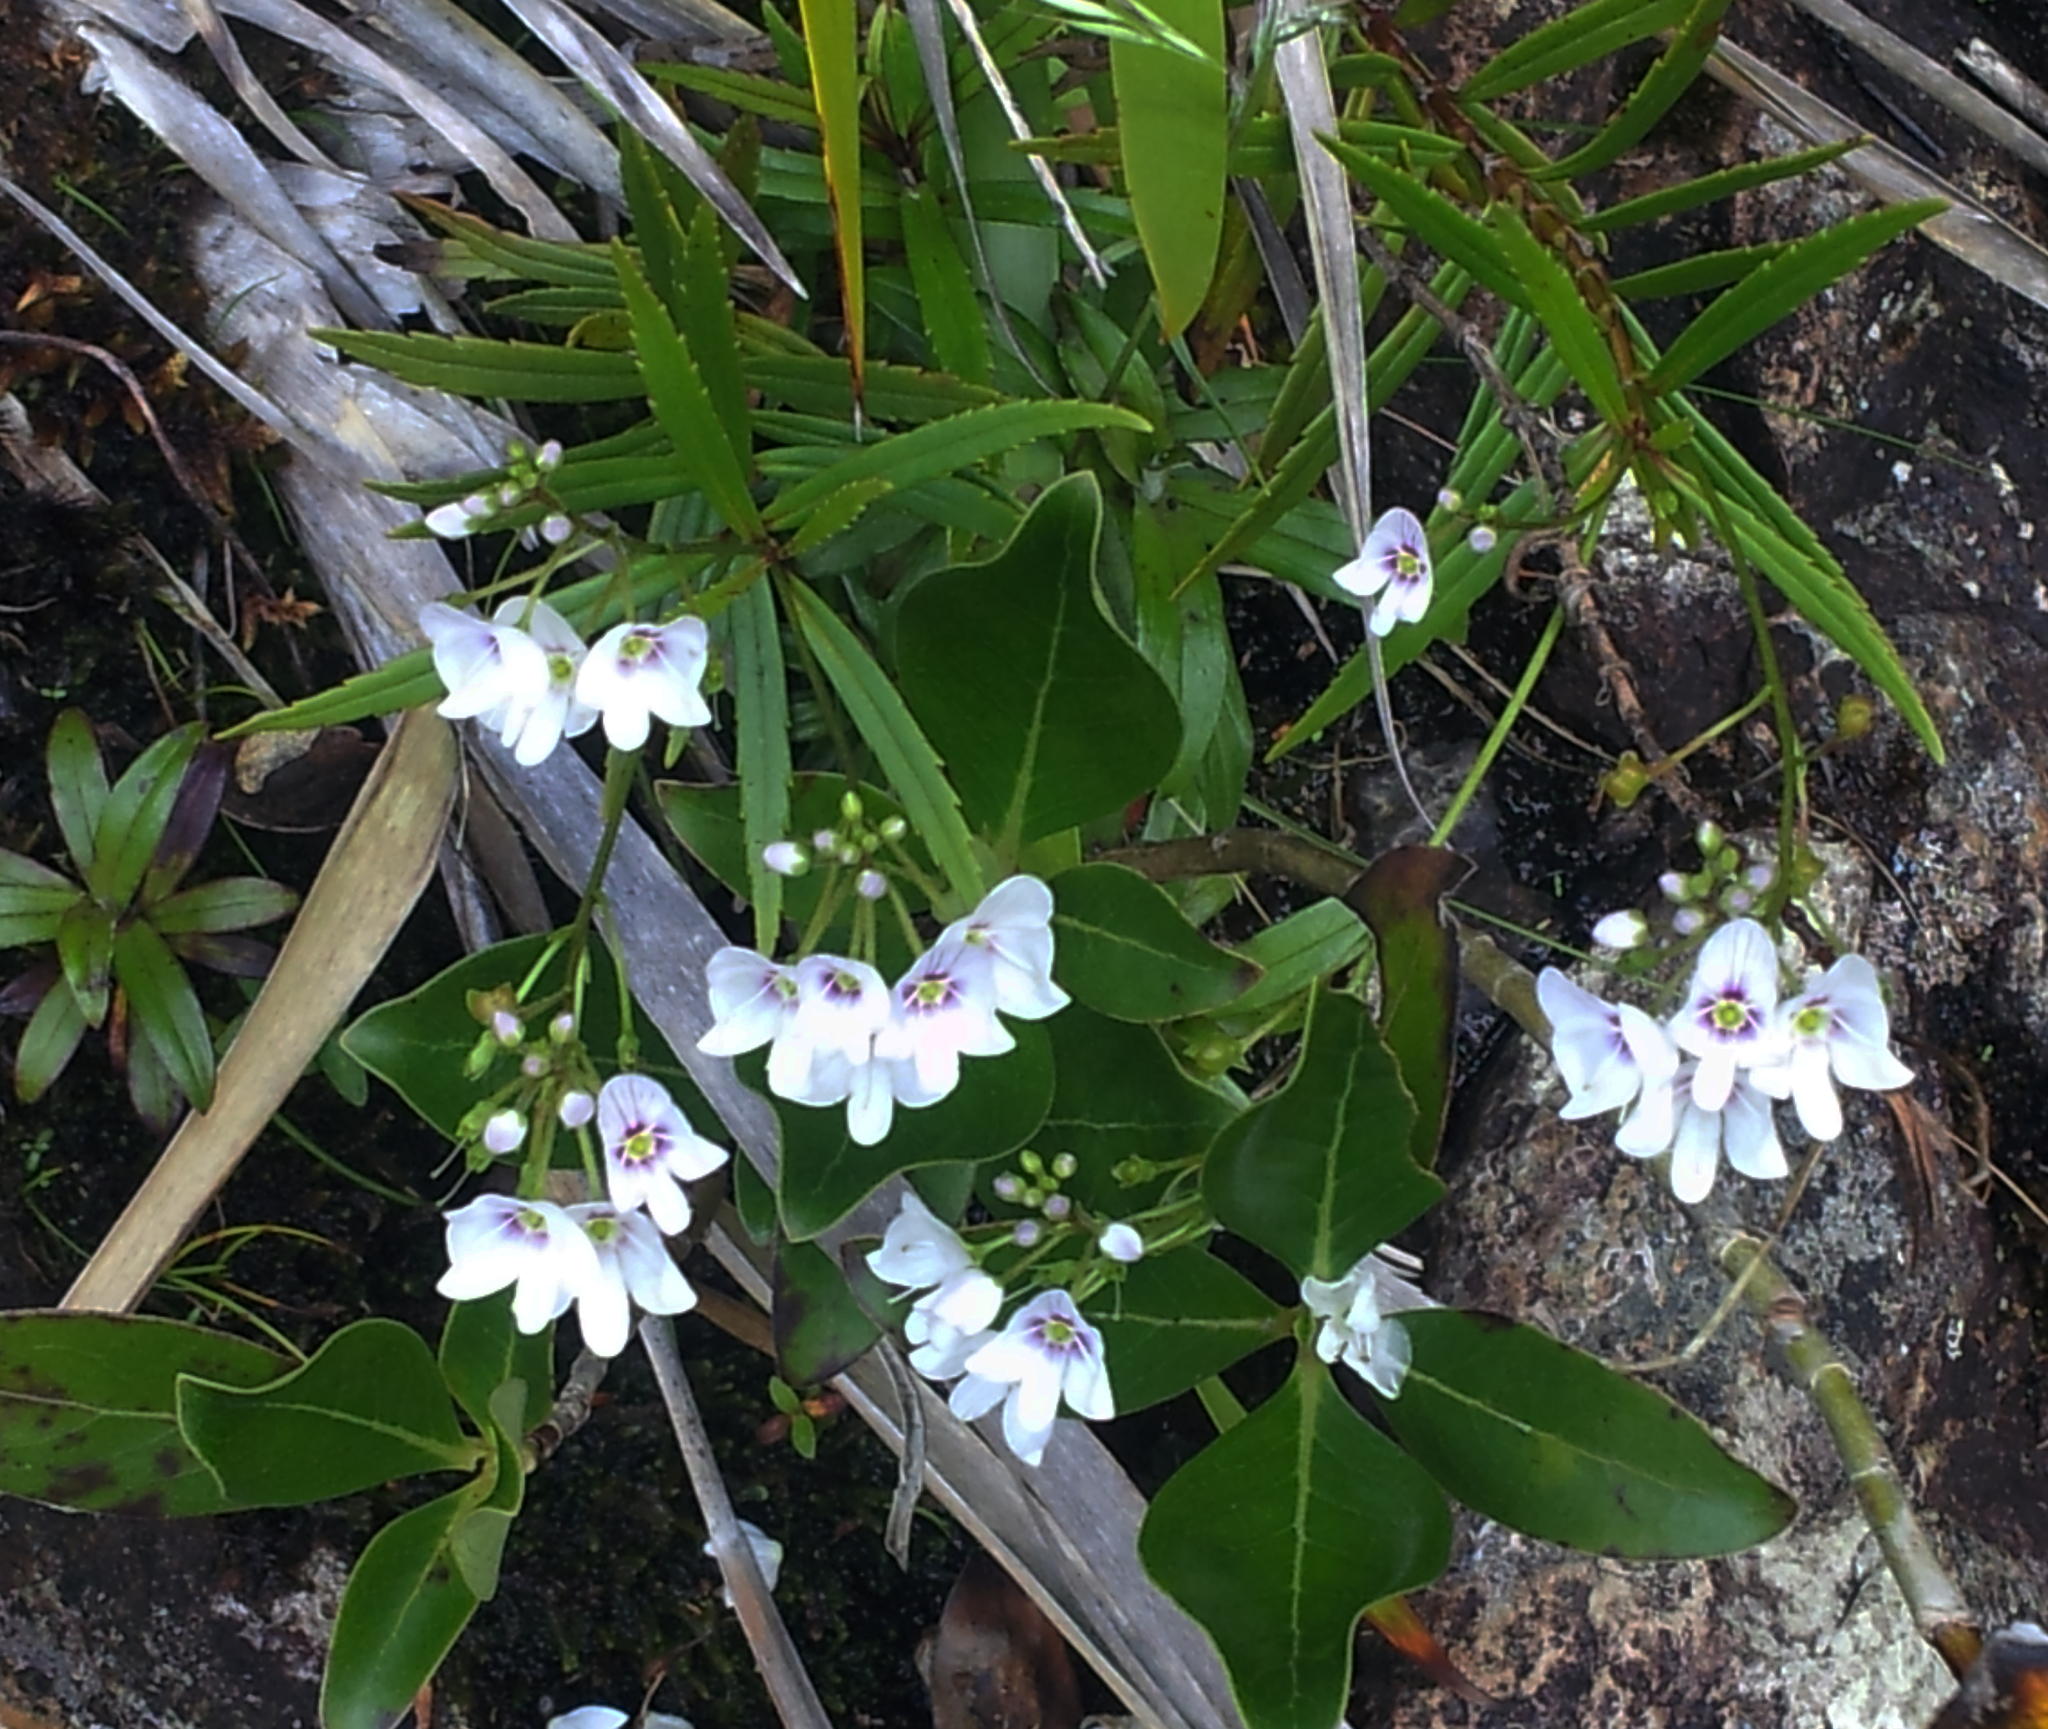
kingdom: Plantae
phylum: Tracheophyta
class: Magnoliopsida
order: Lamiales
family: Plantaginaceae
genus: Veronica
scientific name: Veronica lanceolata
